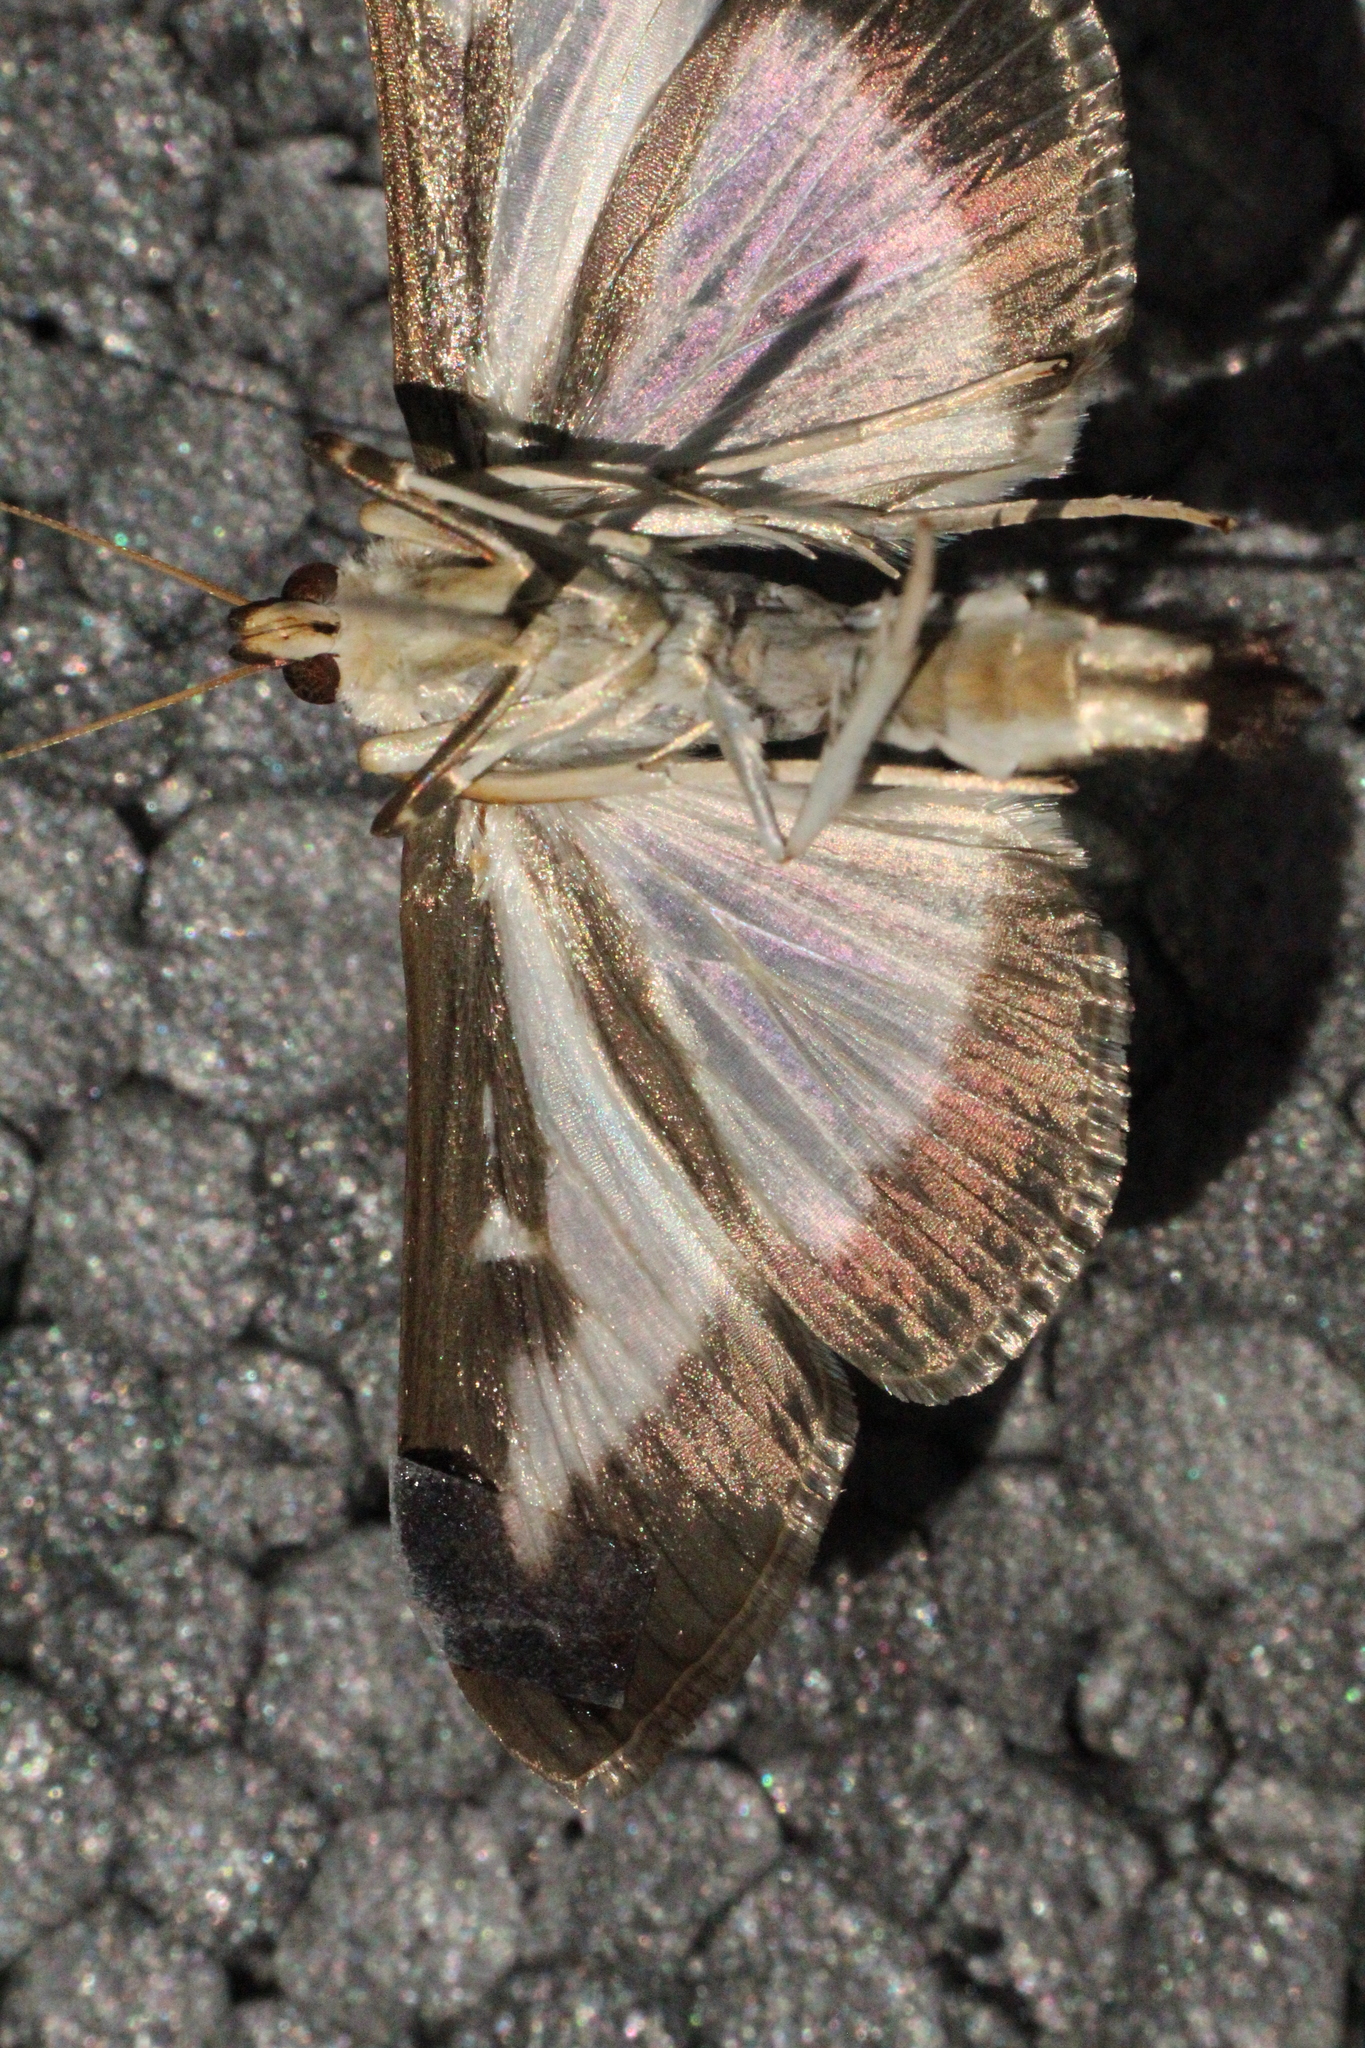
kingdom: Animalia
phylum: Arthropoda
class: Insecta
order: Lepidoptera
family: Crambidae
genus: Cydalima
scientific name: Cydalima perspectalis
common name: Box tree moth
